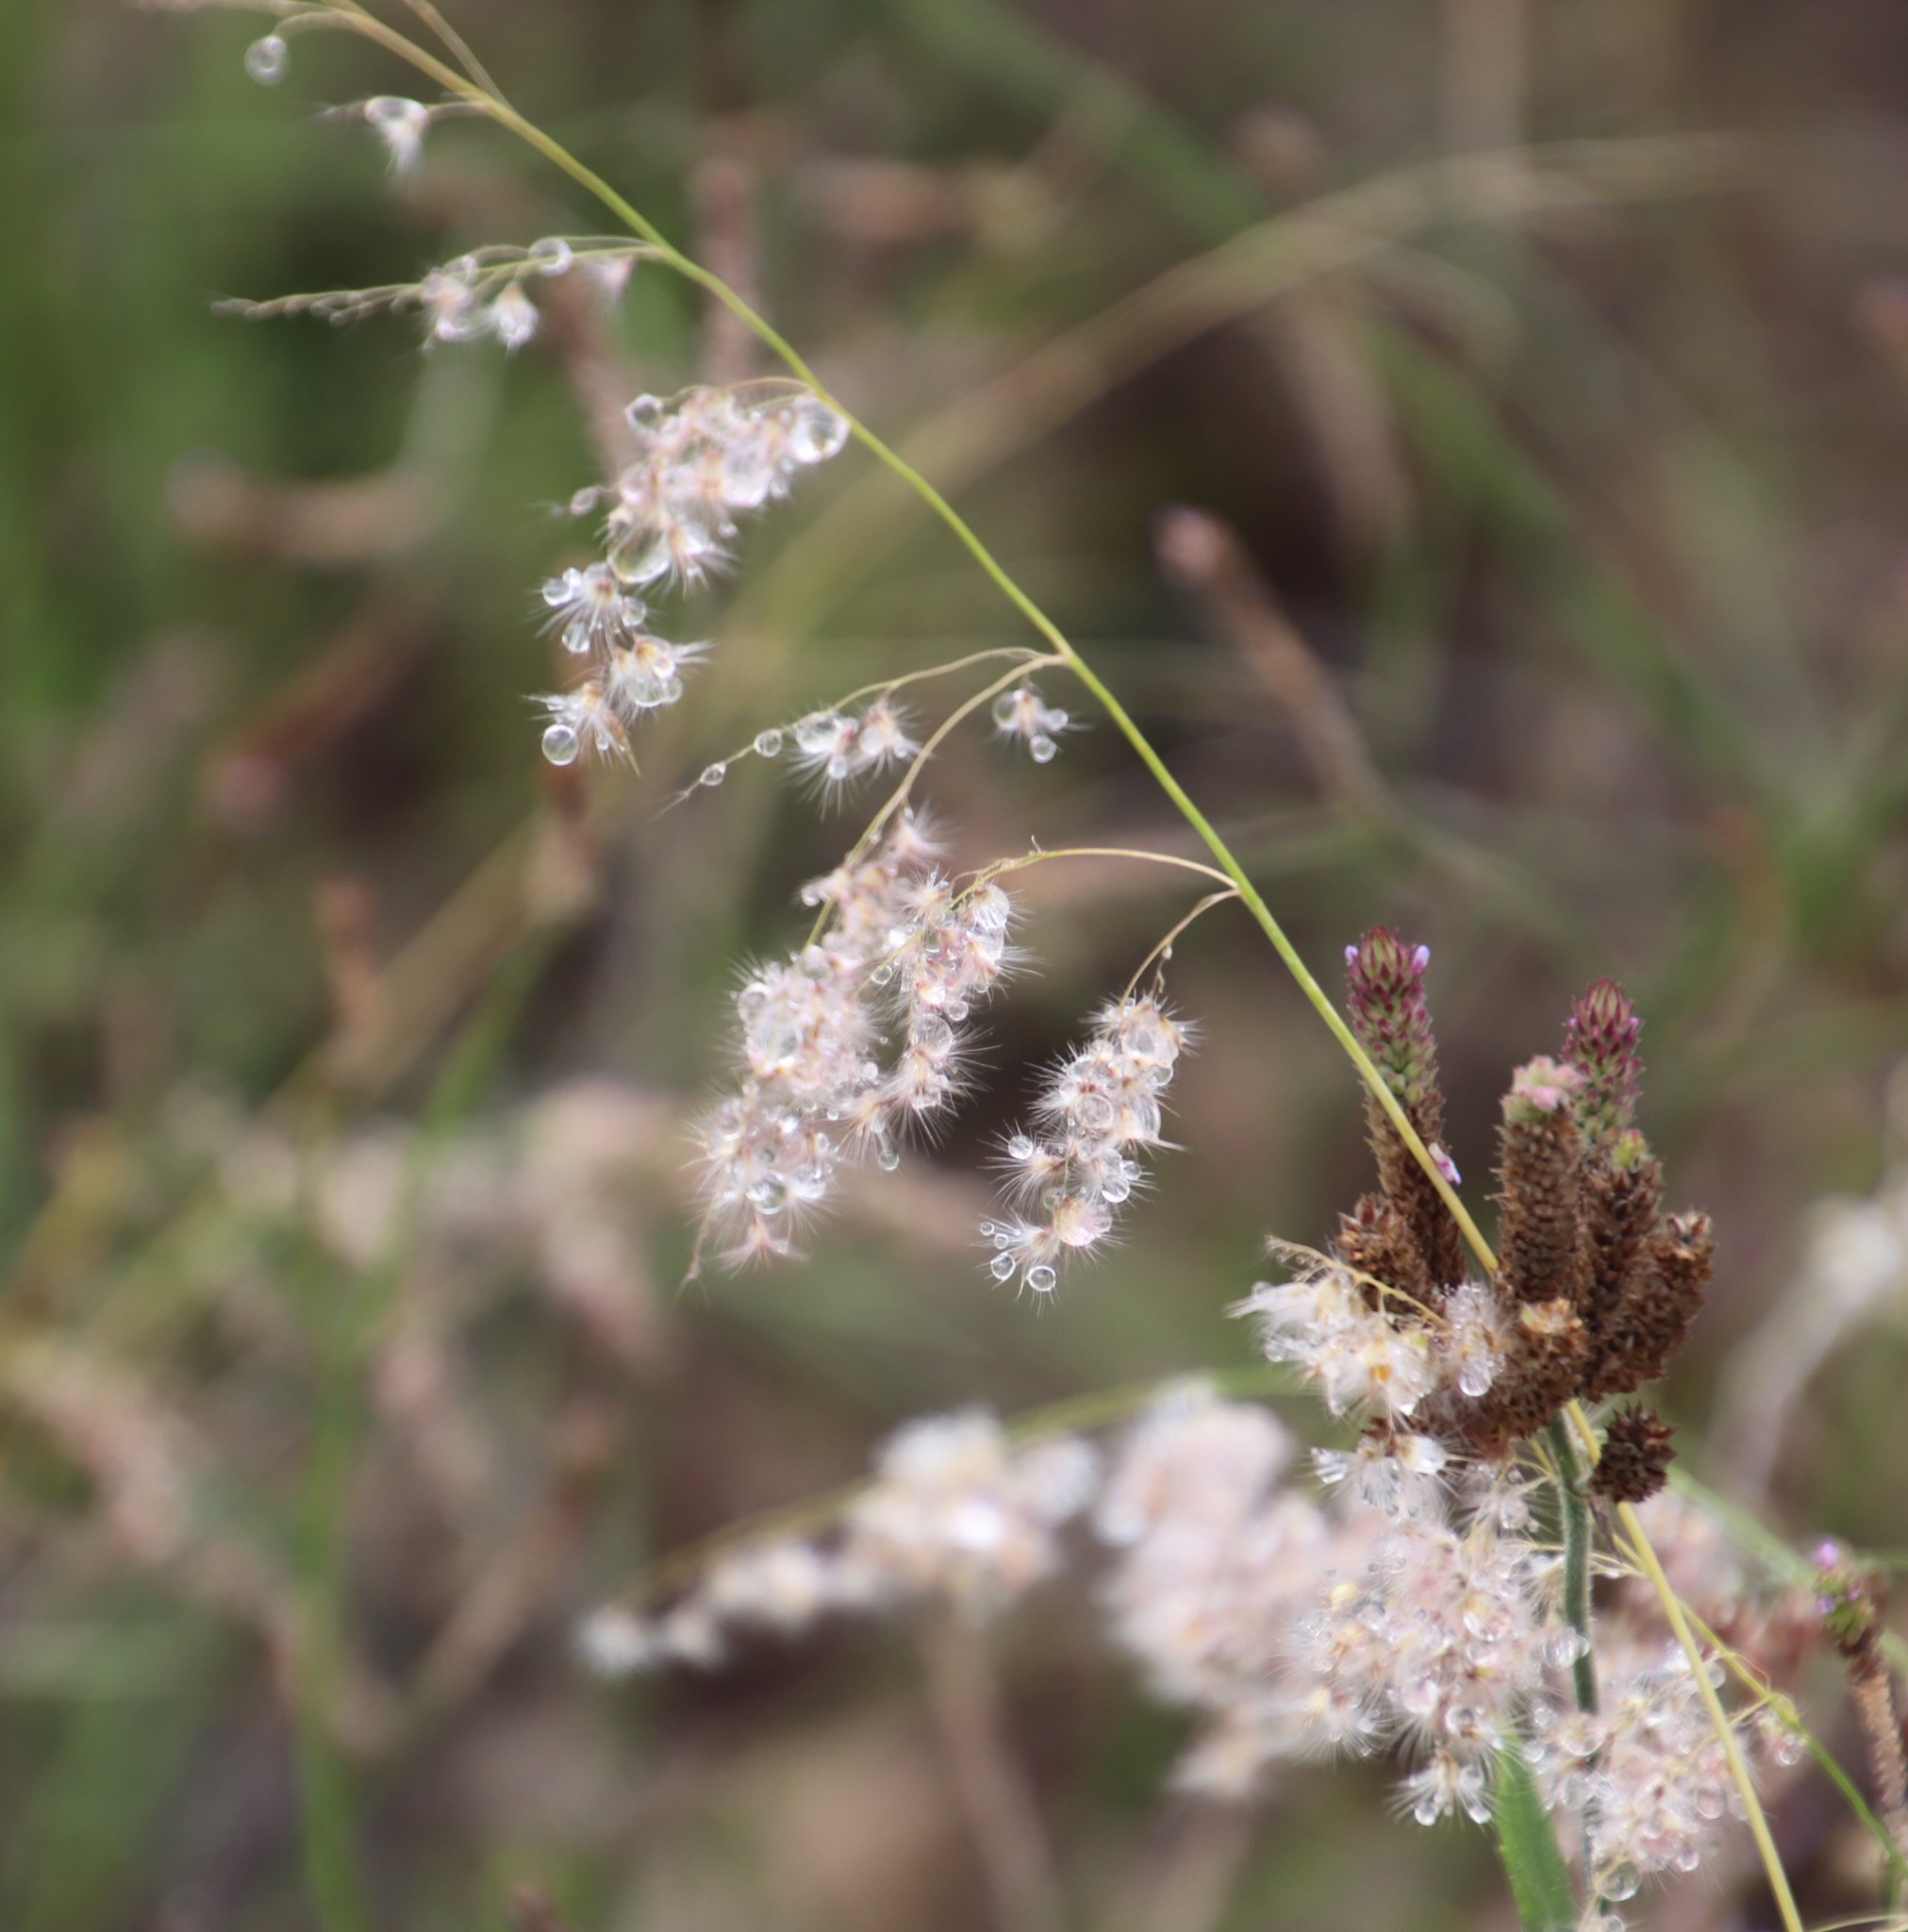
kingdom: Plantae
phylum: Tracheophyta
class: Liliopsida
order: Poales
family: Poaceae
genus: Melinis
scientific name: Melinis repens
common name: Rose natal grass
